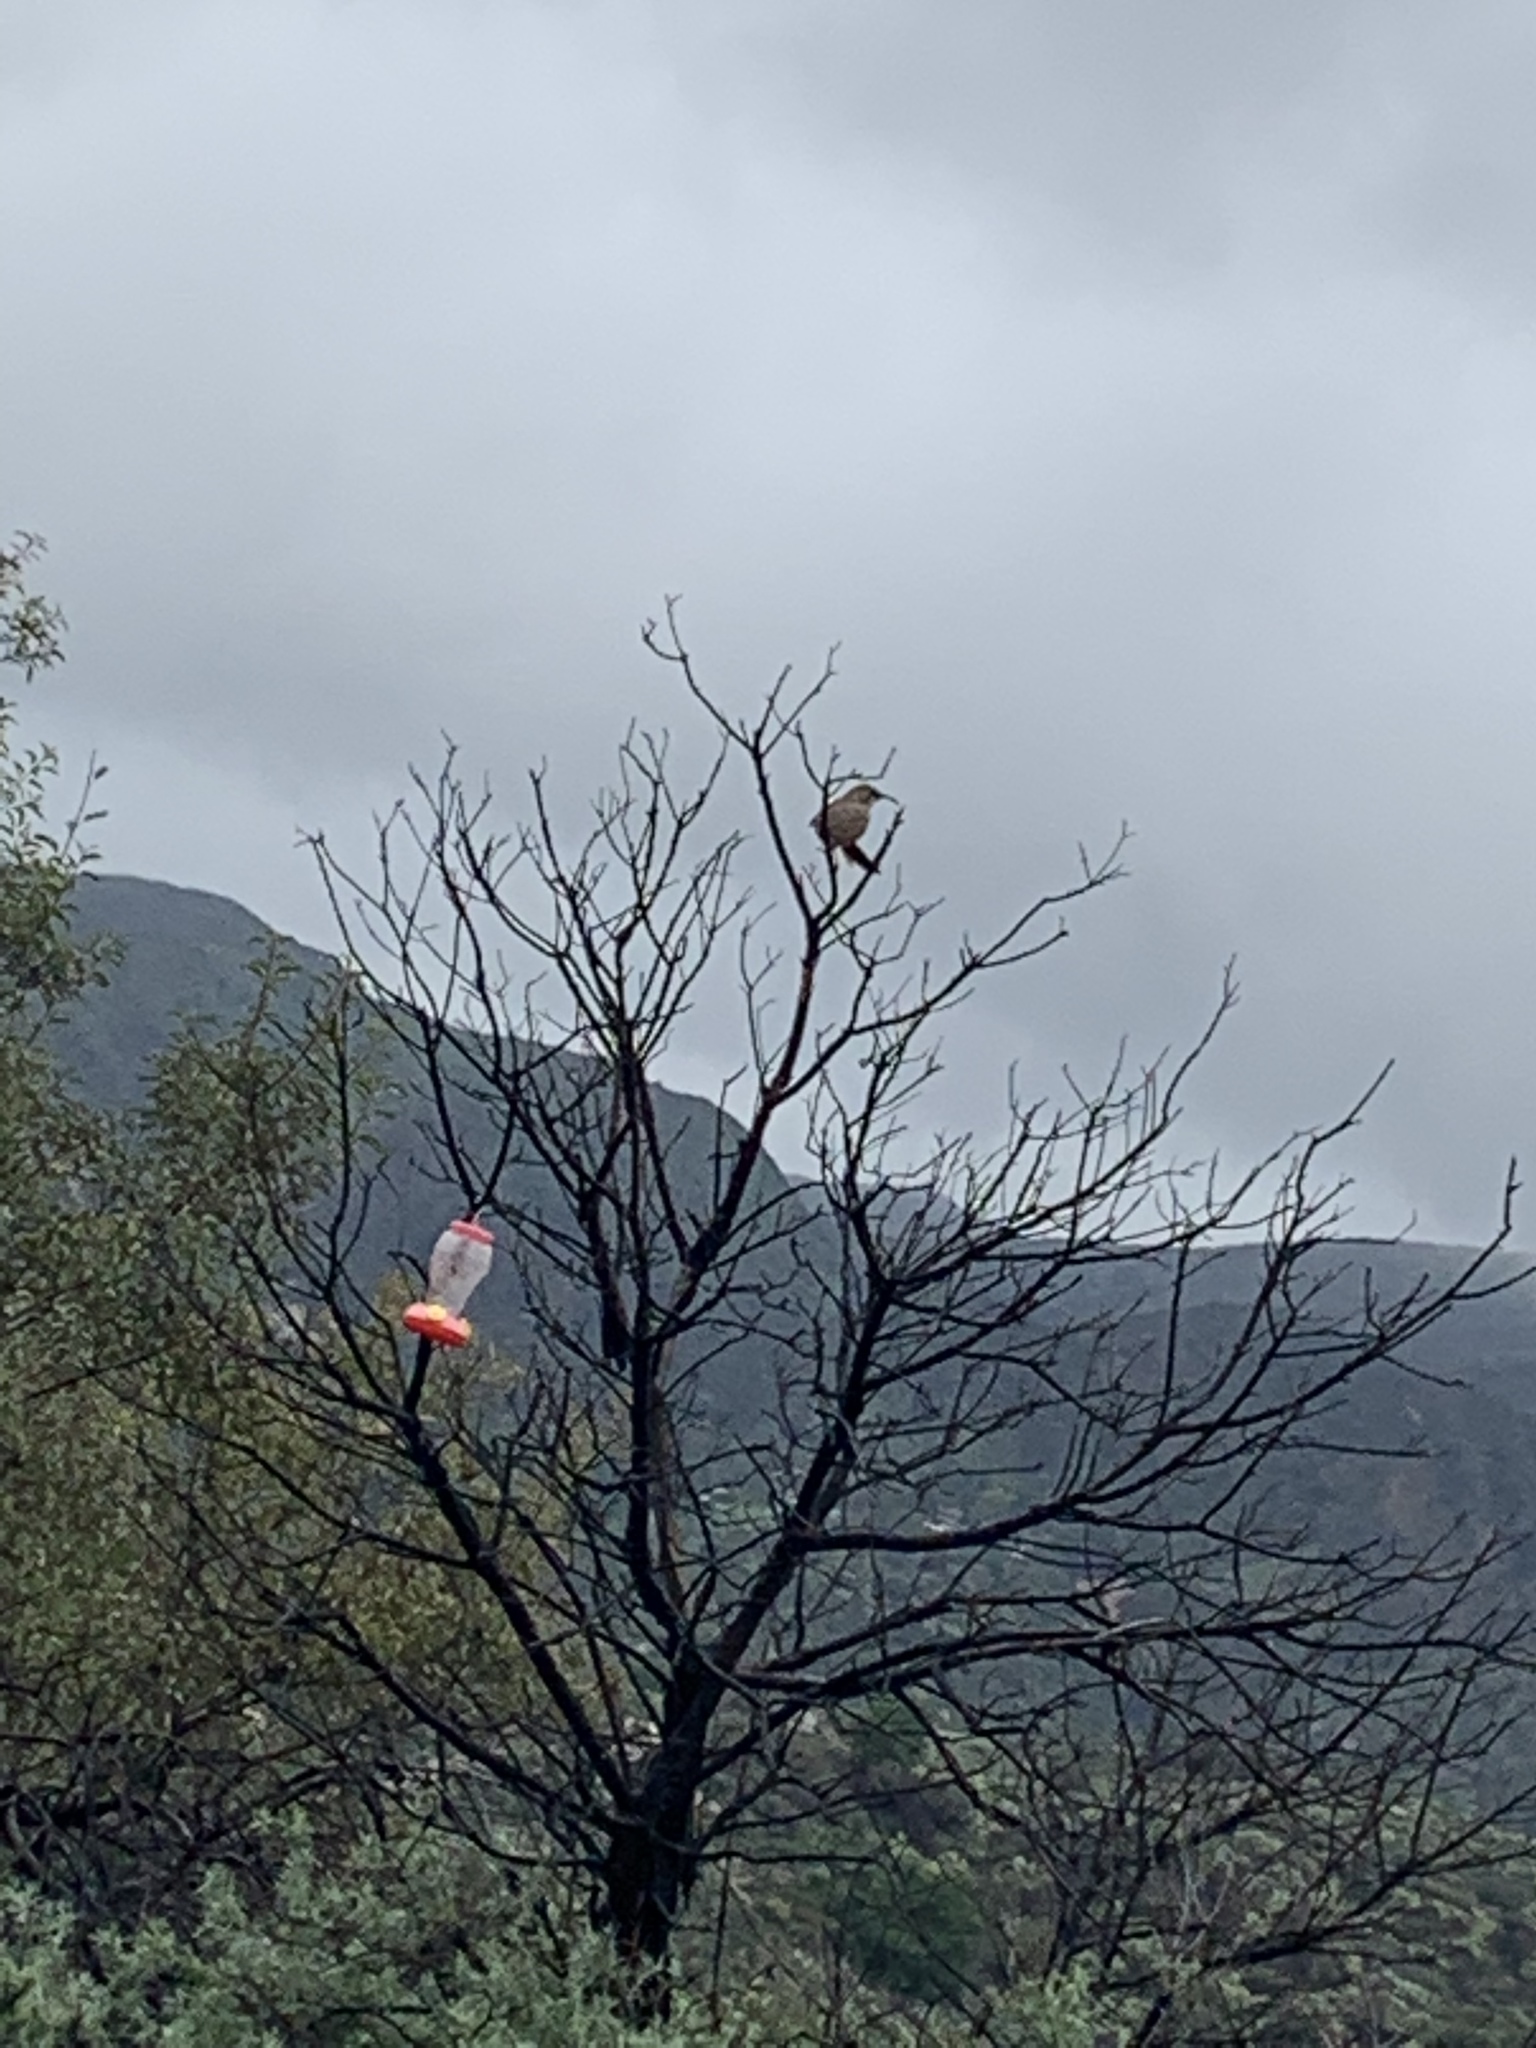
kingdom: Animalia
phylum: Chordata
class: Aves
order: Passeriformes
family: Mimidae
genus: Toxostoma
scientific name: Toxostoma redivivum
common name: California thrasher
